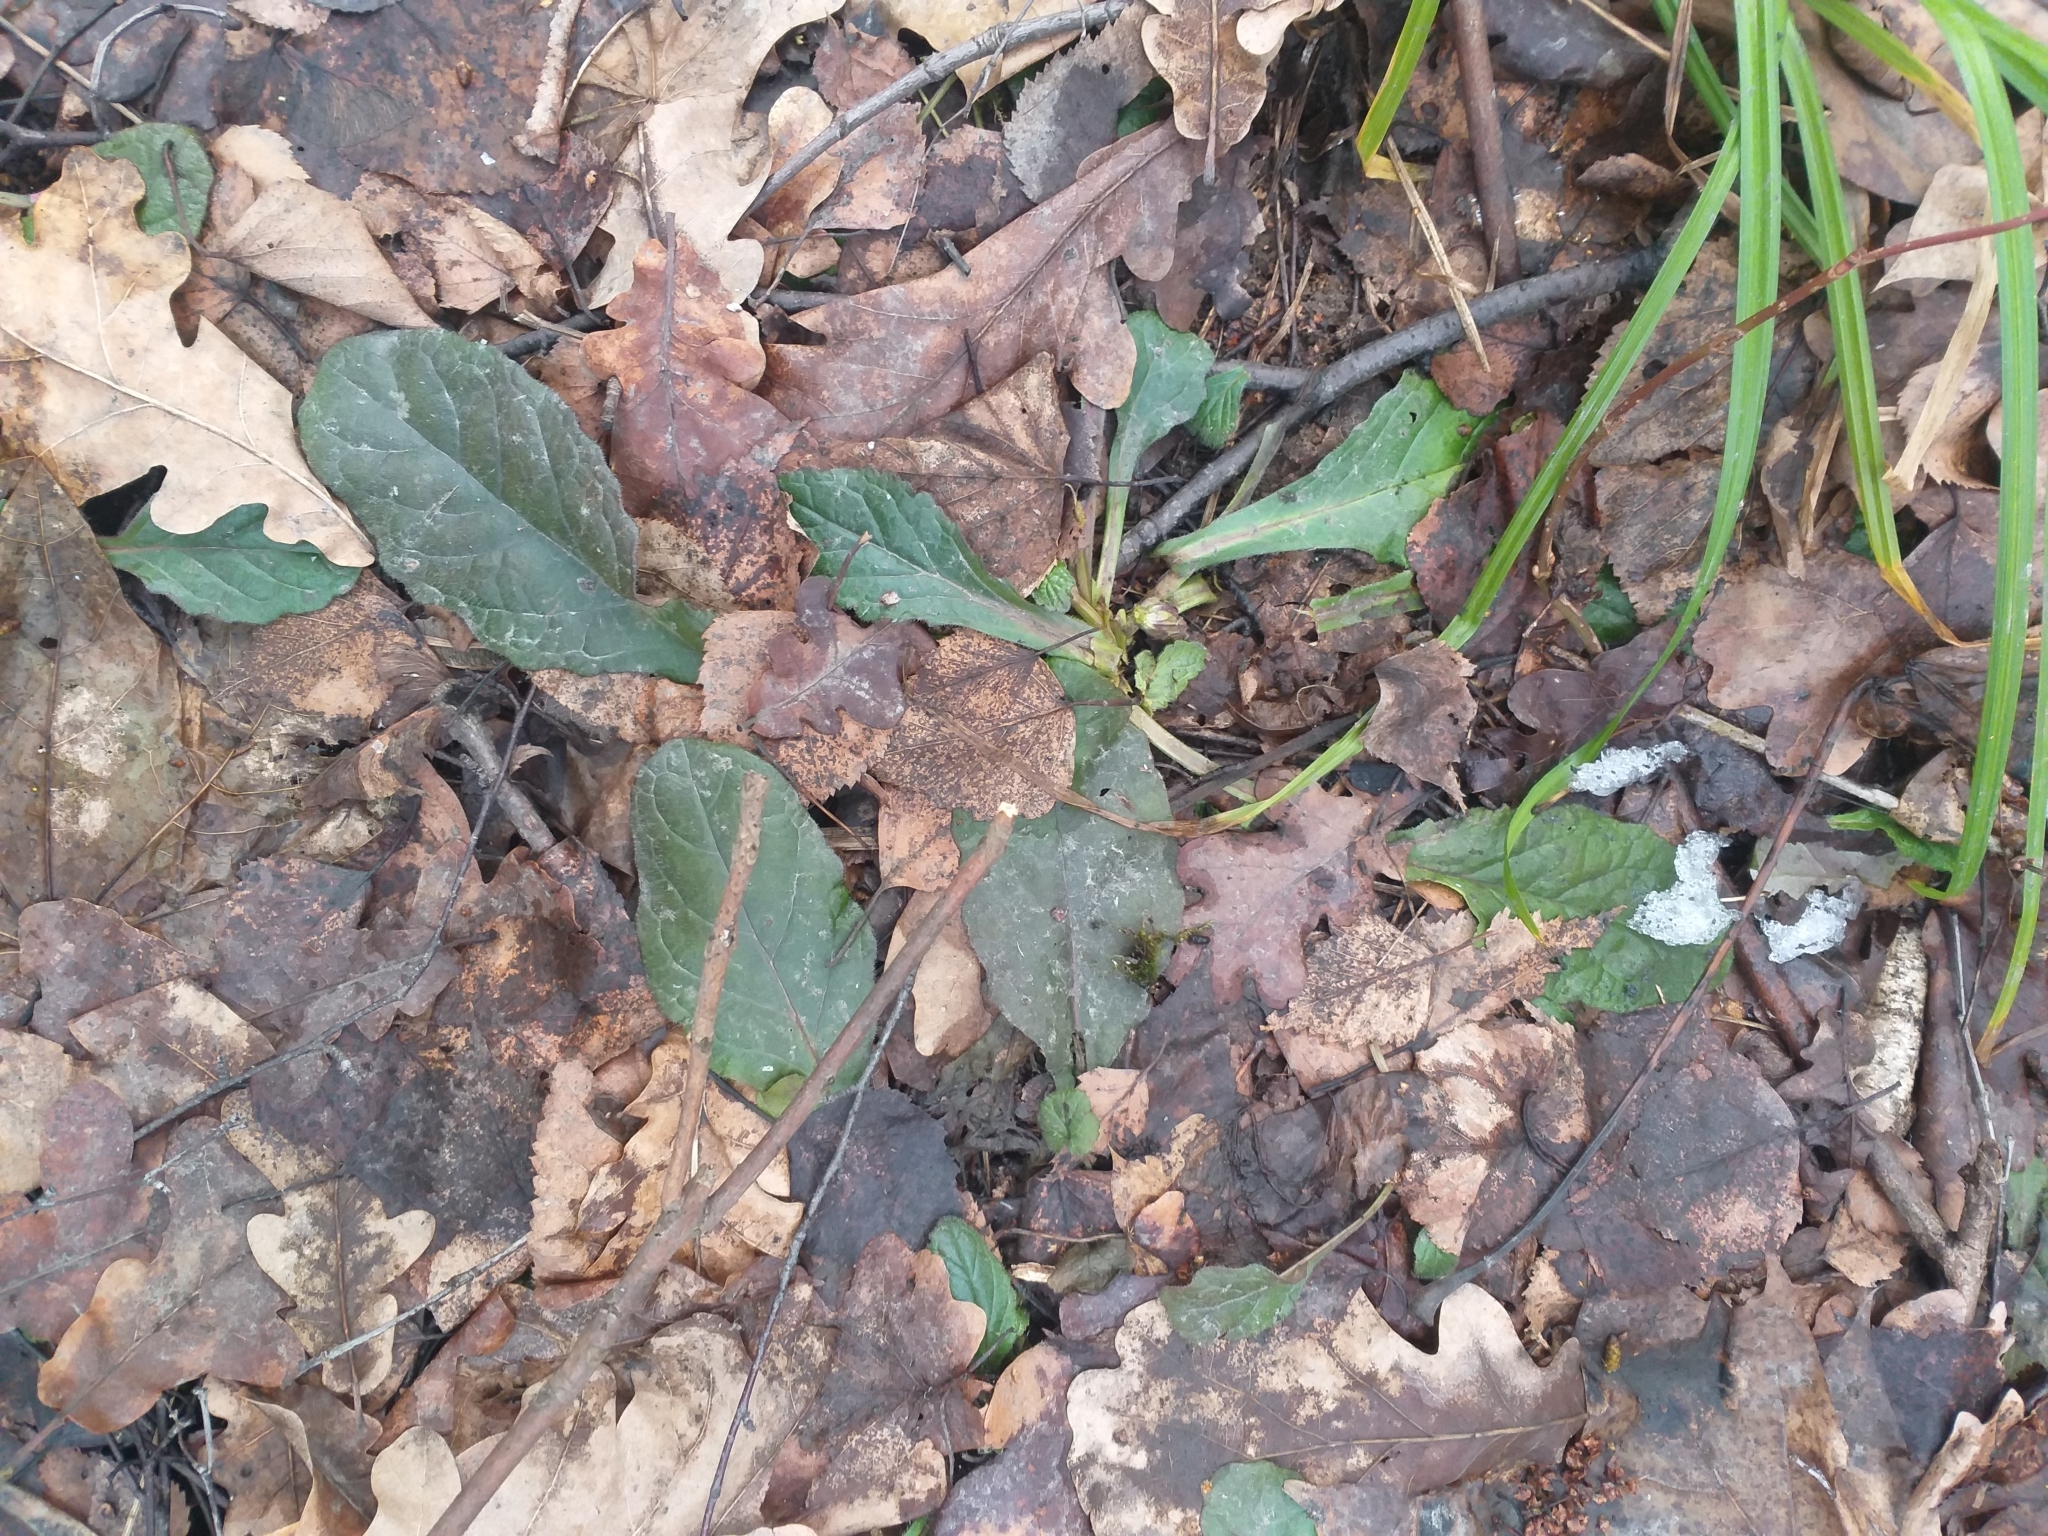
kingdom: Plantae
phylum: Tracheophyta
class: Magnoliopsida
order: Lamiales
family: Lamiaceae
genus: Ajuga
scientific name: Ajuga reptans
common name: Bugle
